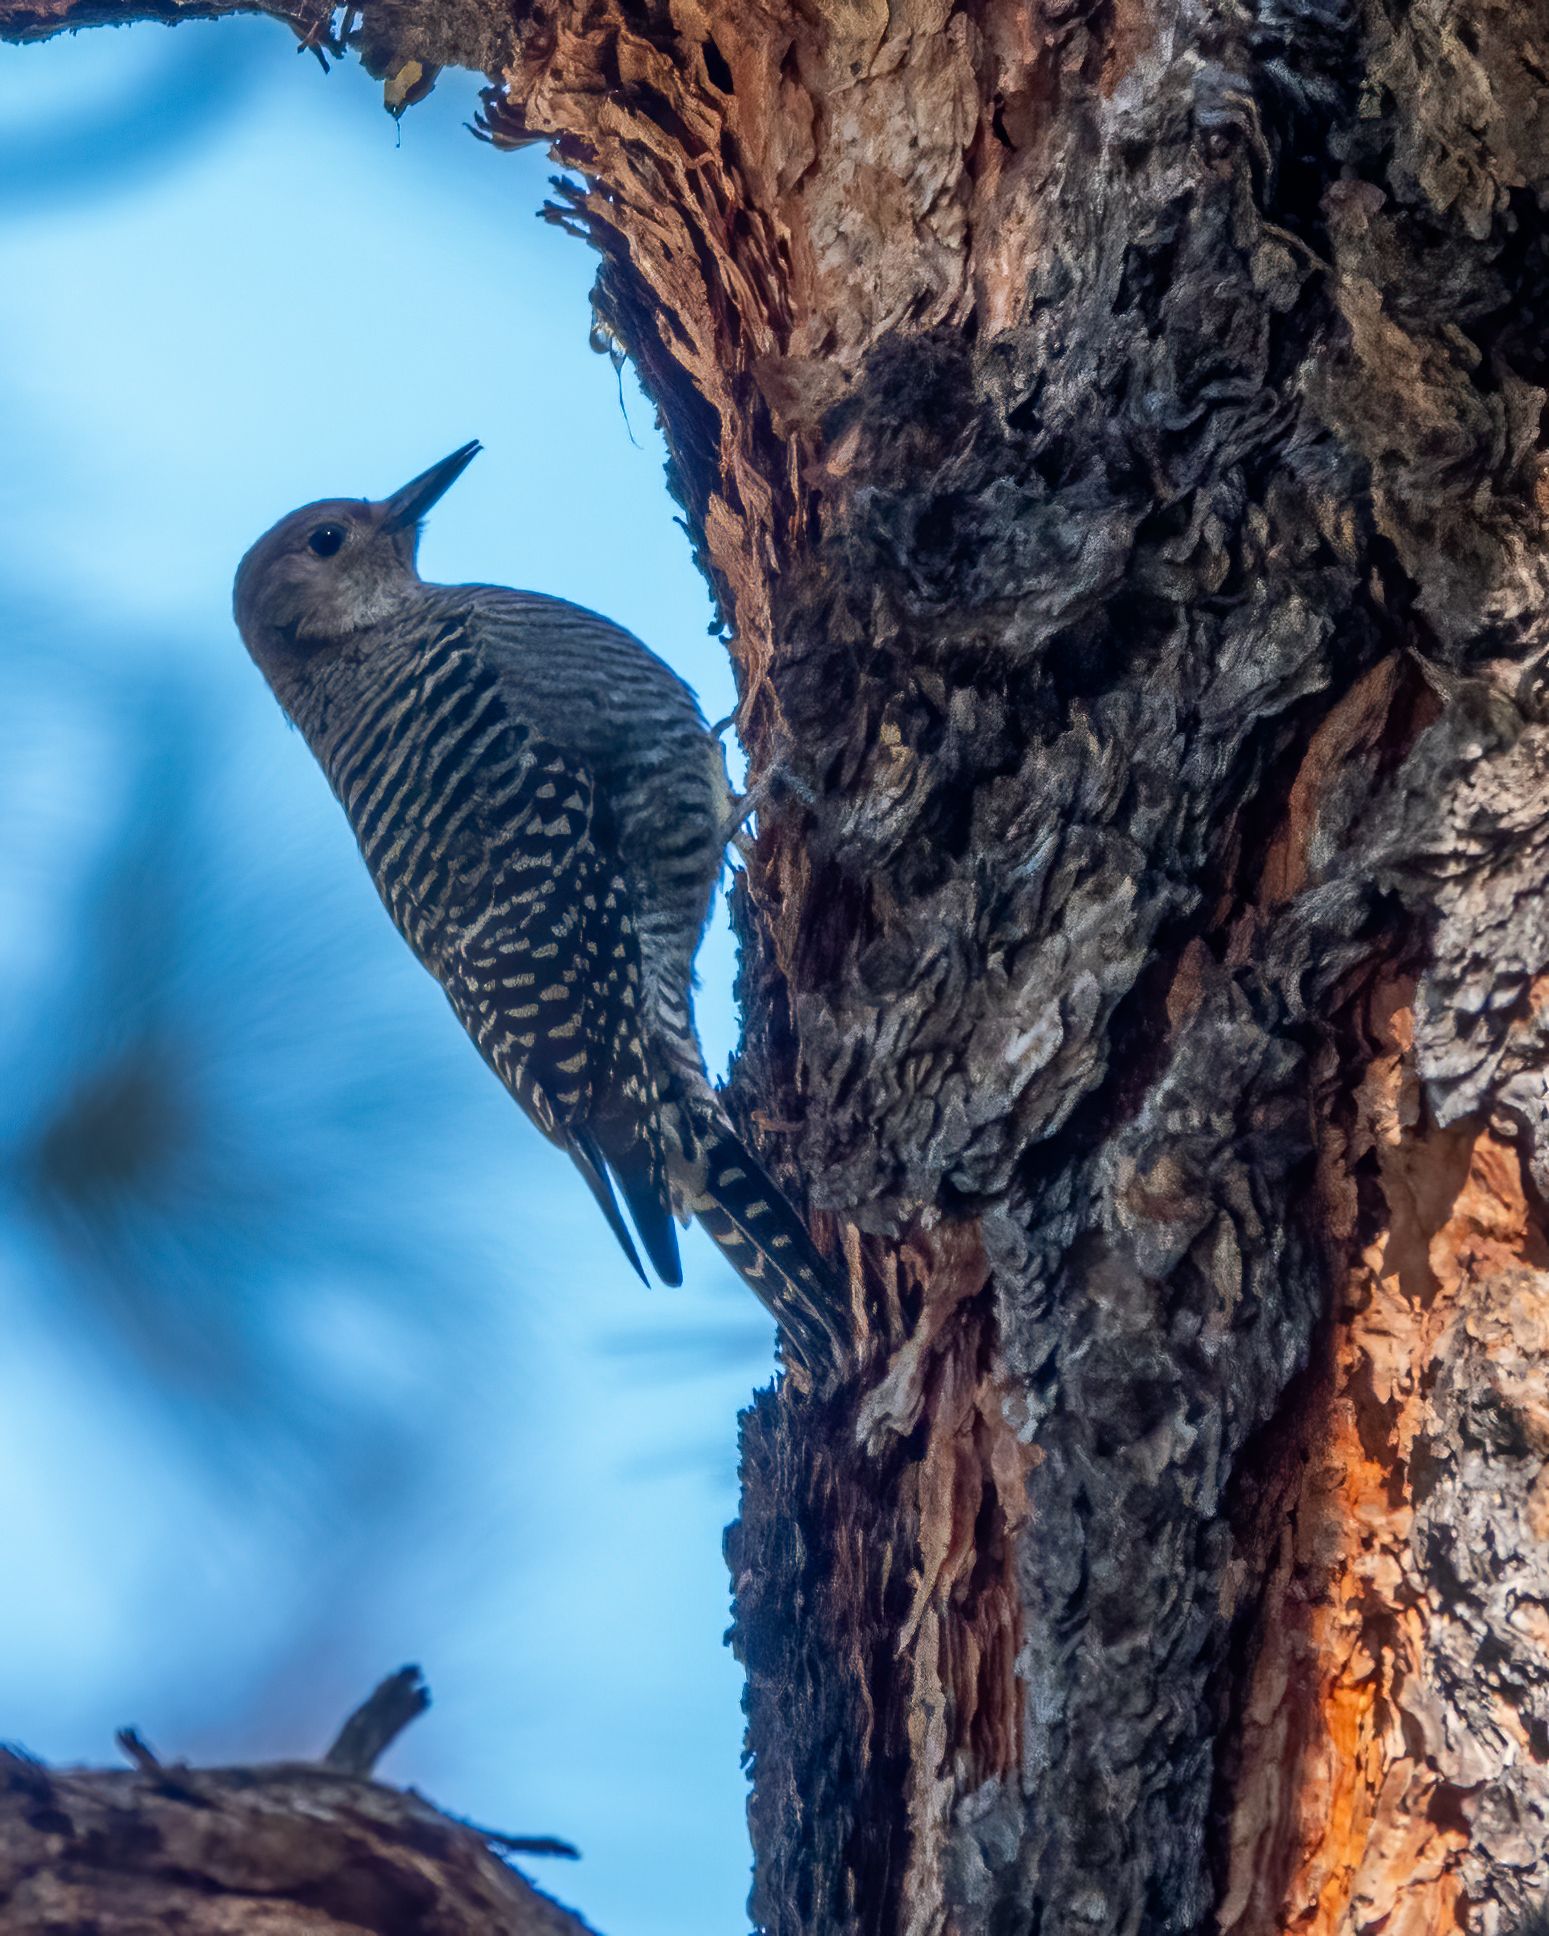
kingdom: Animalia
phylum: Chordata
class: Aves
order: Piciformes
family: Picidae
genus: Sphyrapicus
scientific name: Sphyrapicus thyroideus
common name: Williamson's sapsucker
